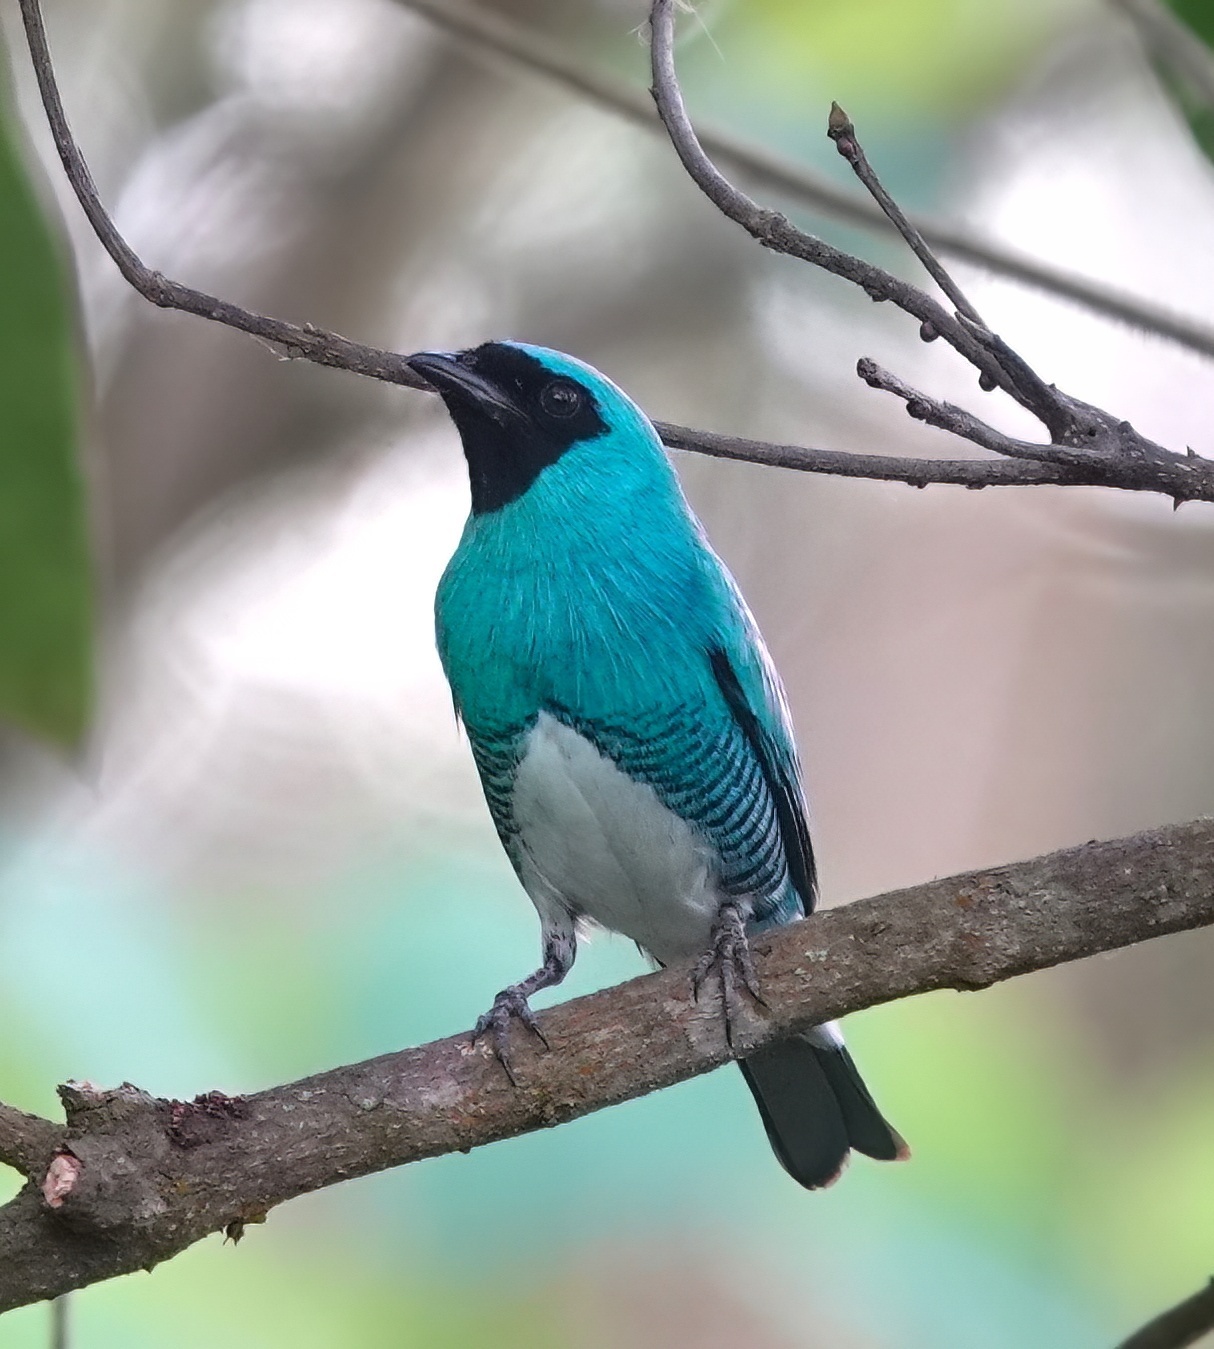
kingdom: Animalia
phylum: Chordata
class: Aves
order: Passeriformes
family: Thraupidae
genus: Tersina
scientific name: Tersina viridis
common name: Swallow tanager
